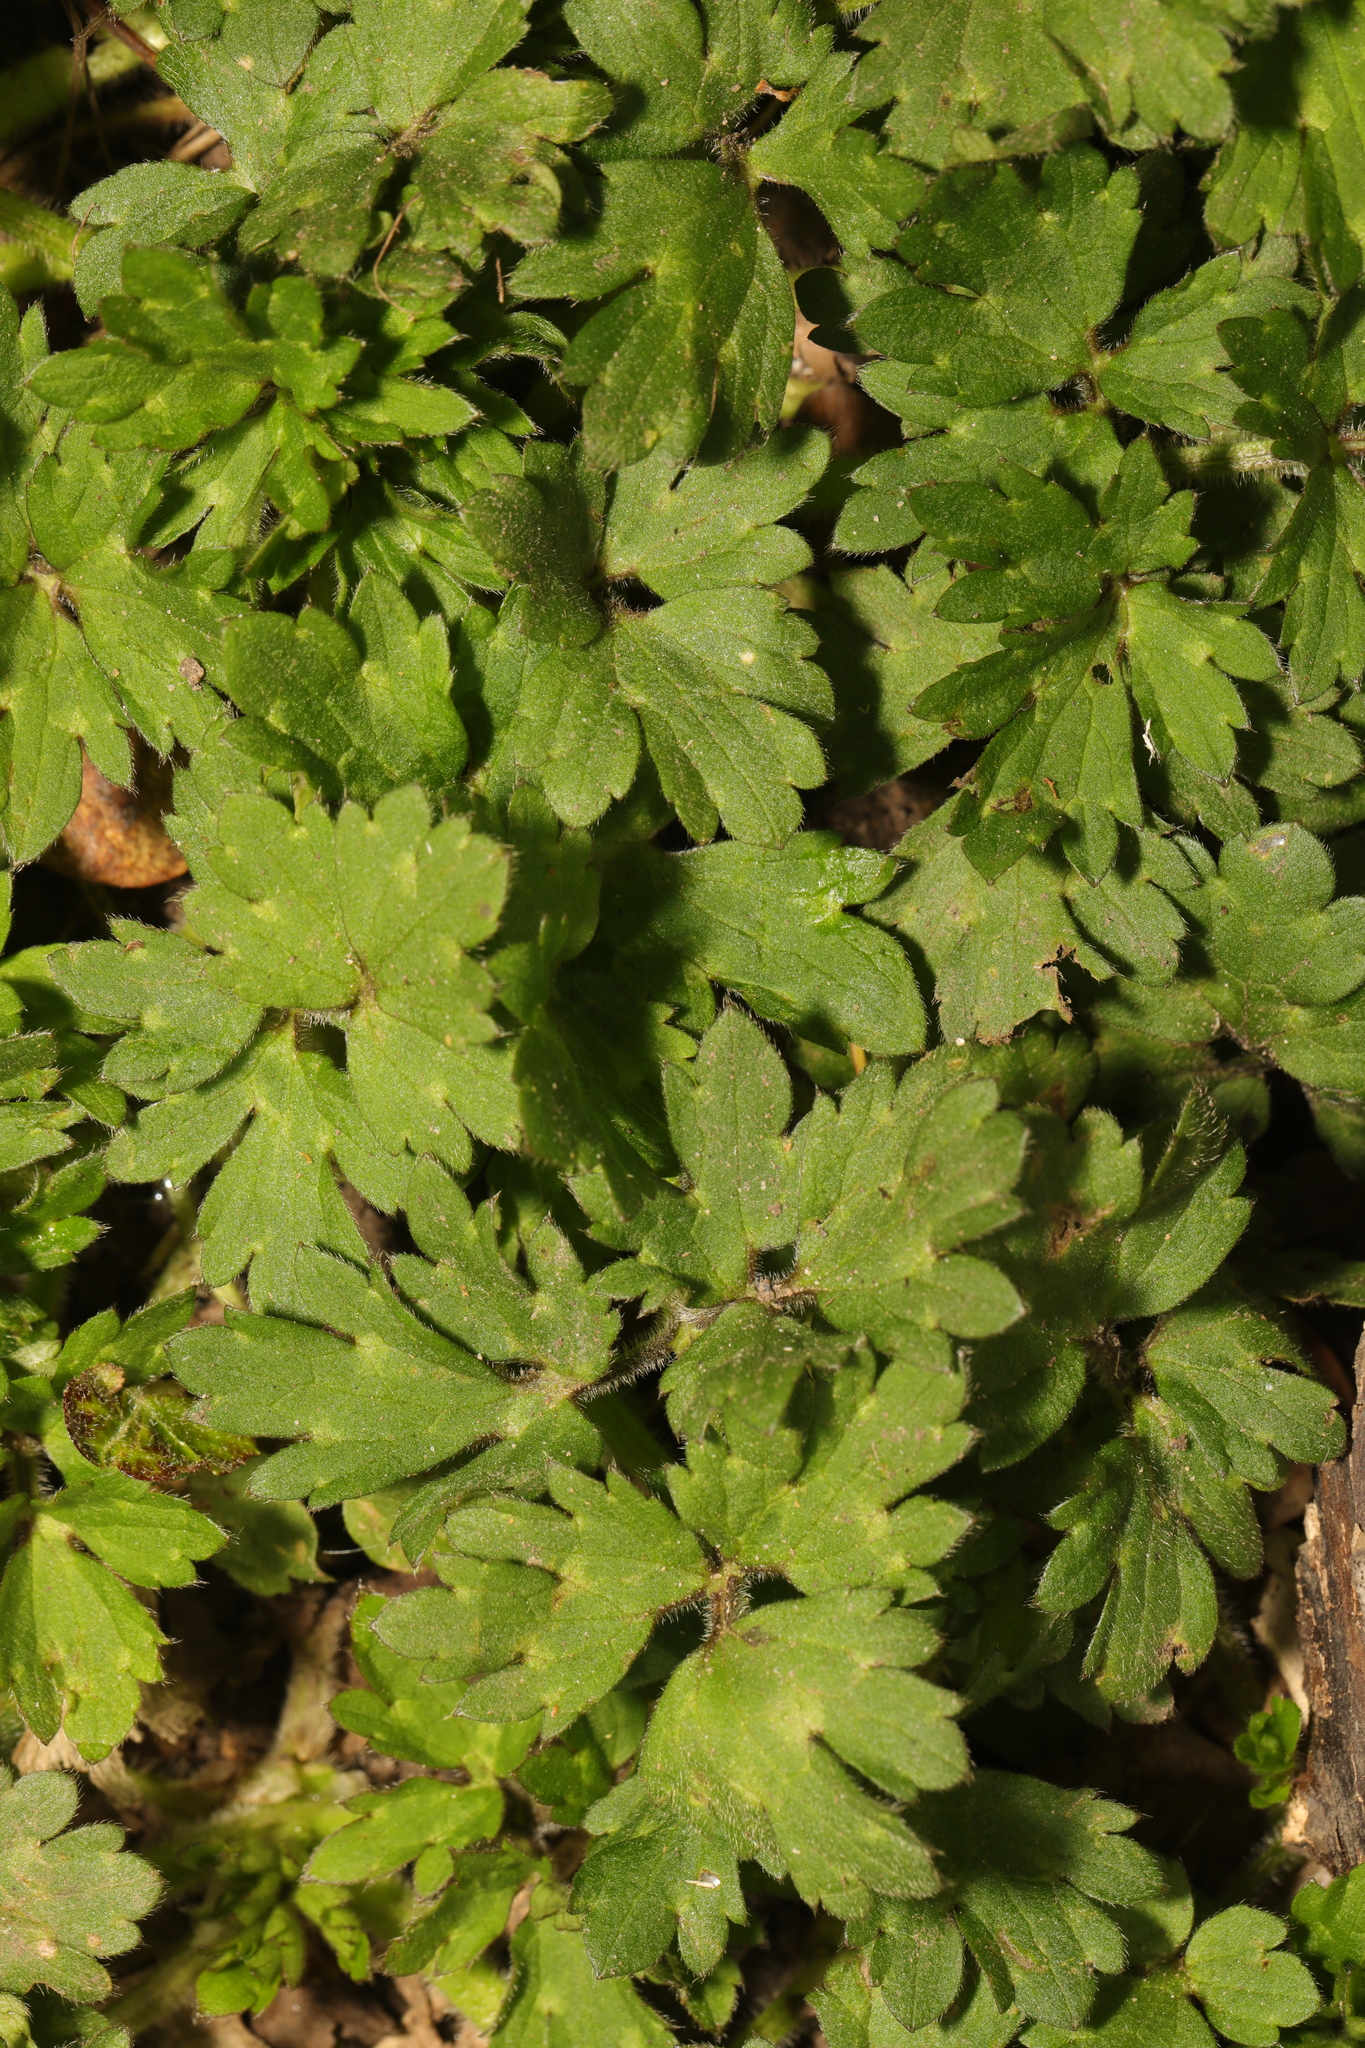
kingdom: Plantae
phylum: Tracheophyta
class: Magnoliopsida
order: Ranunculales
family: Ranunculaceae
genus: Ranunculus
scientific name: Ranunculus repens
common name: Creeping buttercup
